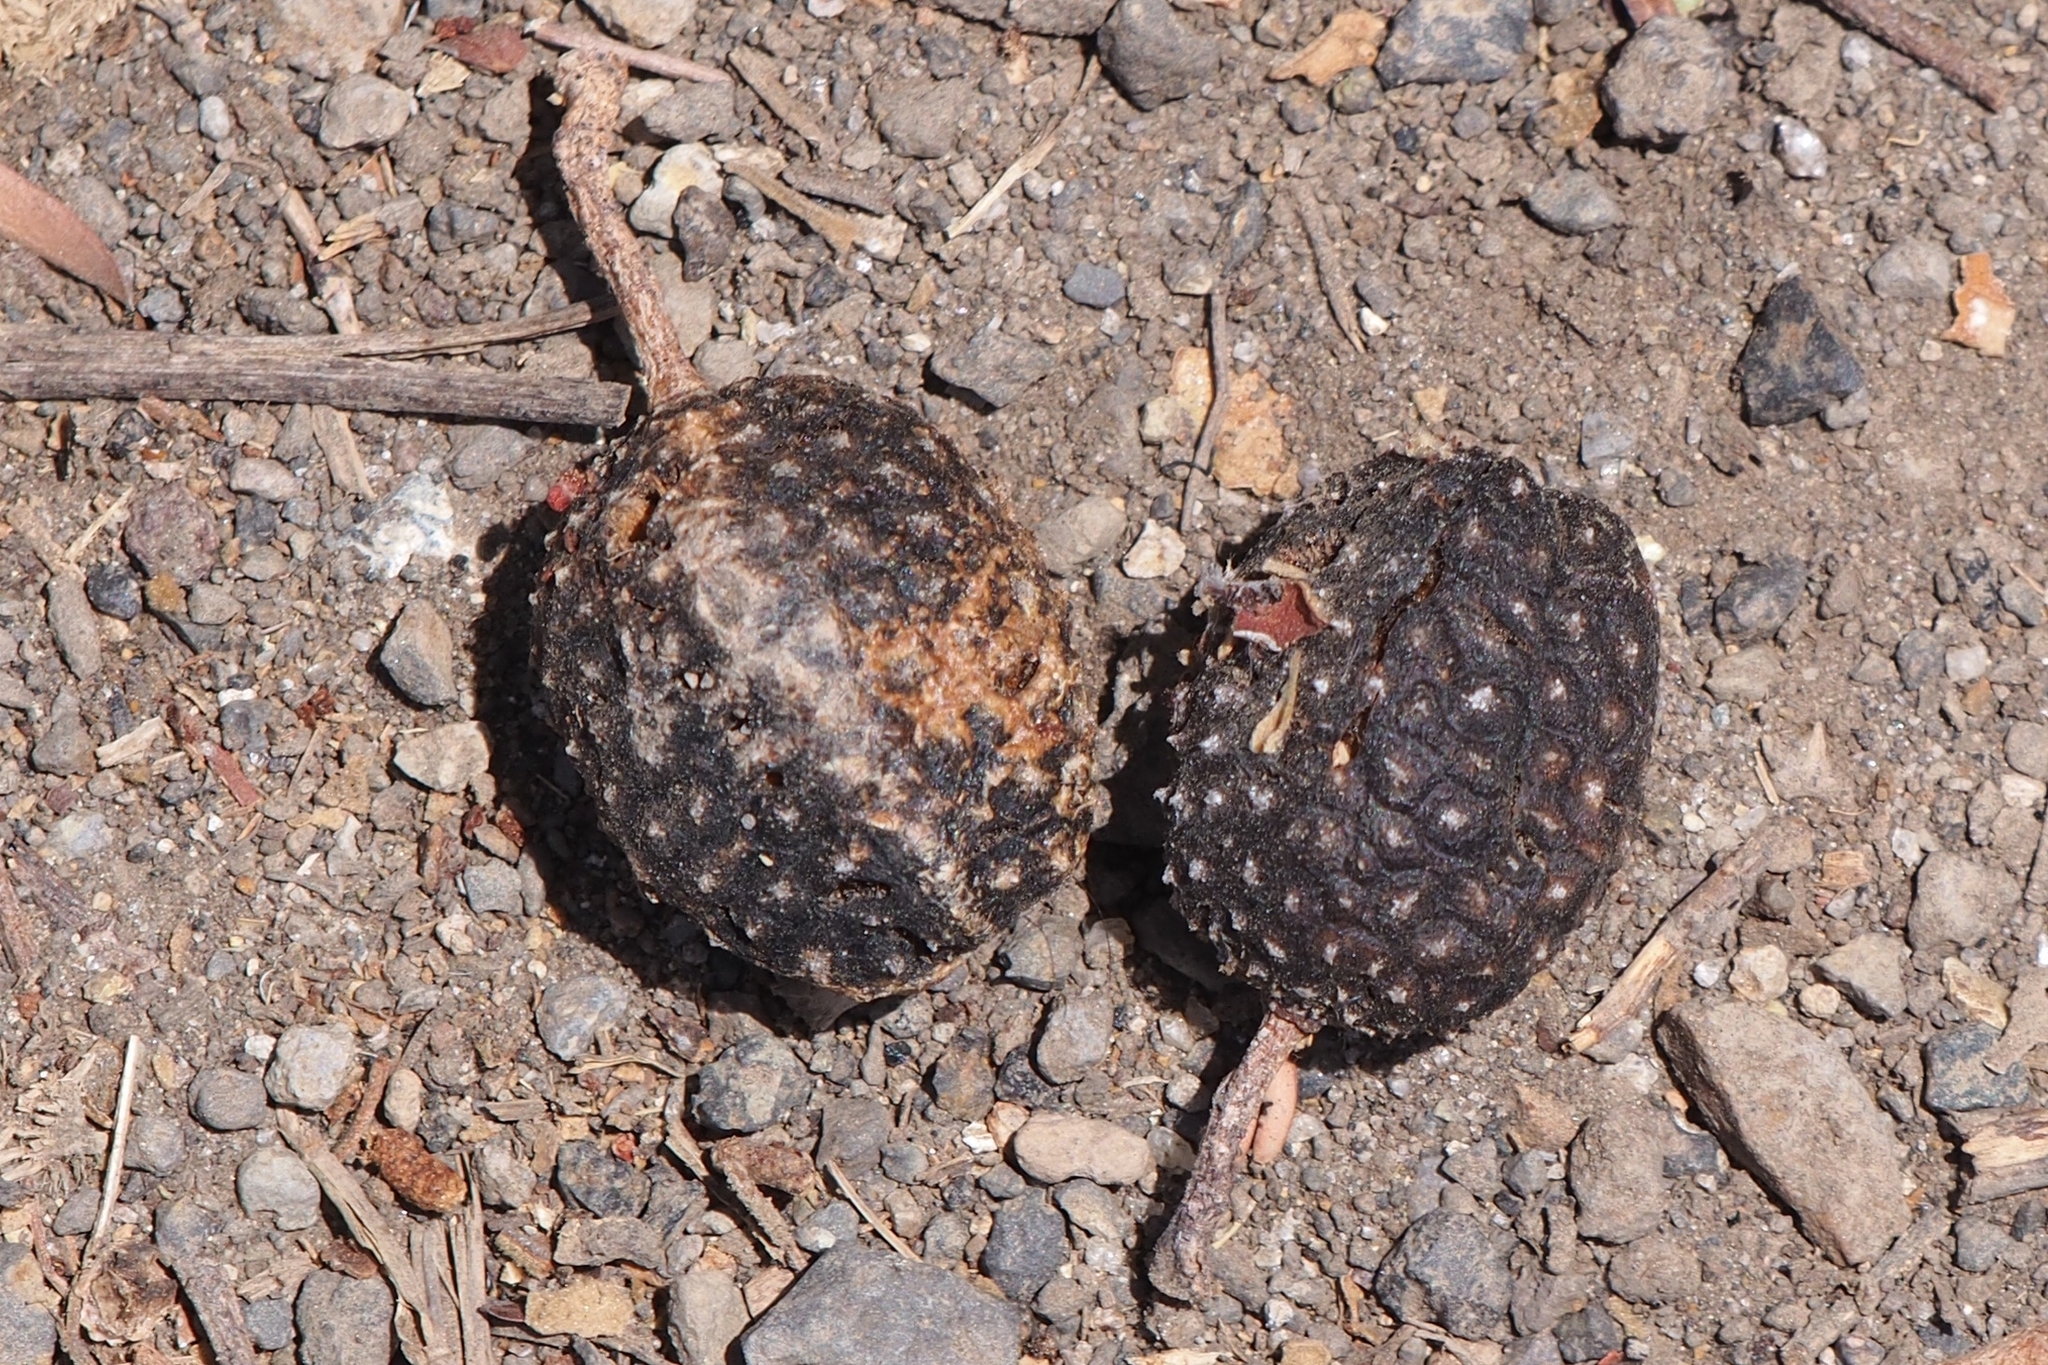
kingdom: Plantae
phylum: Tracheophyta
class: Magnoliopsida
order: Malvales
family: Malvaceae
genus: Guazuma
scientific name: Guazuma ulmifolia
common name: Bastard-cedar
